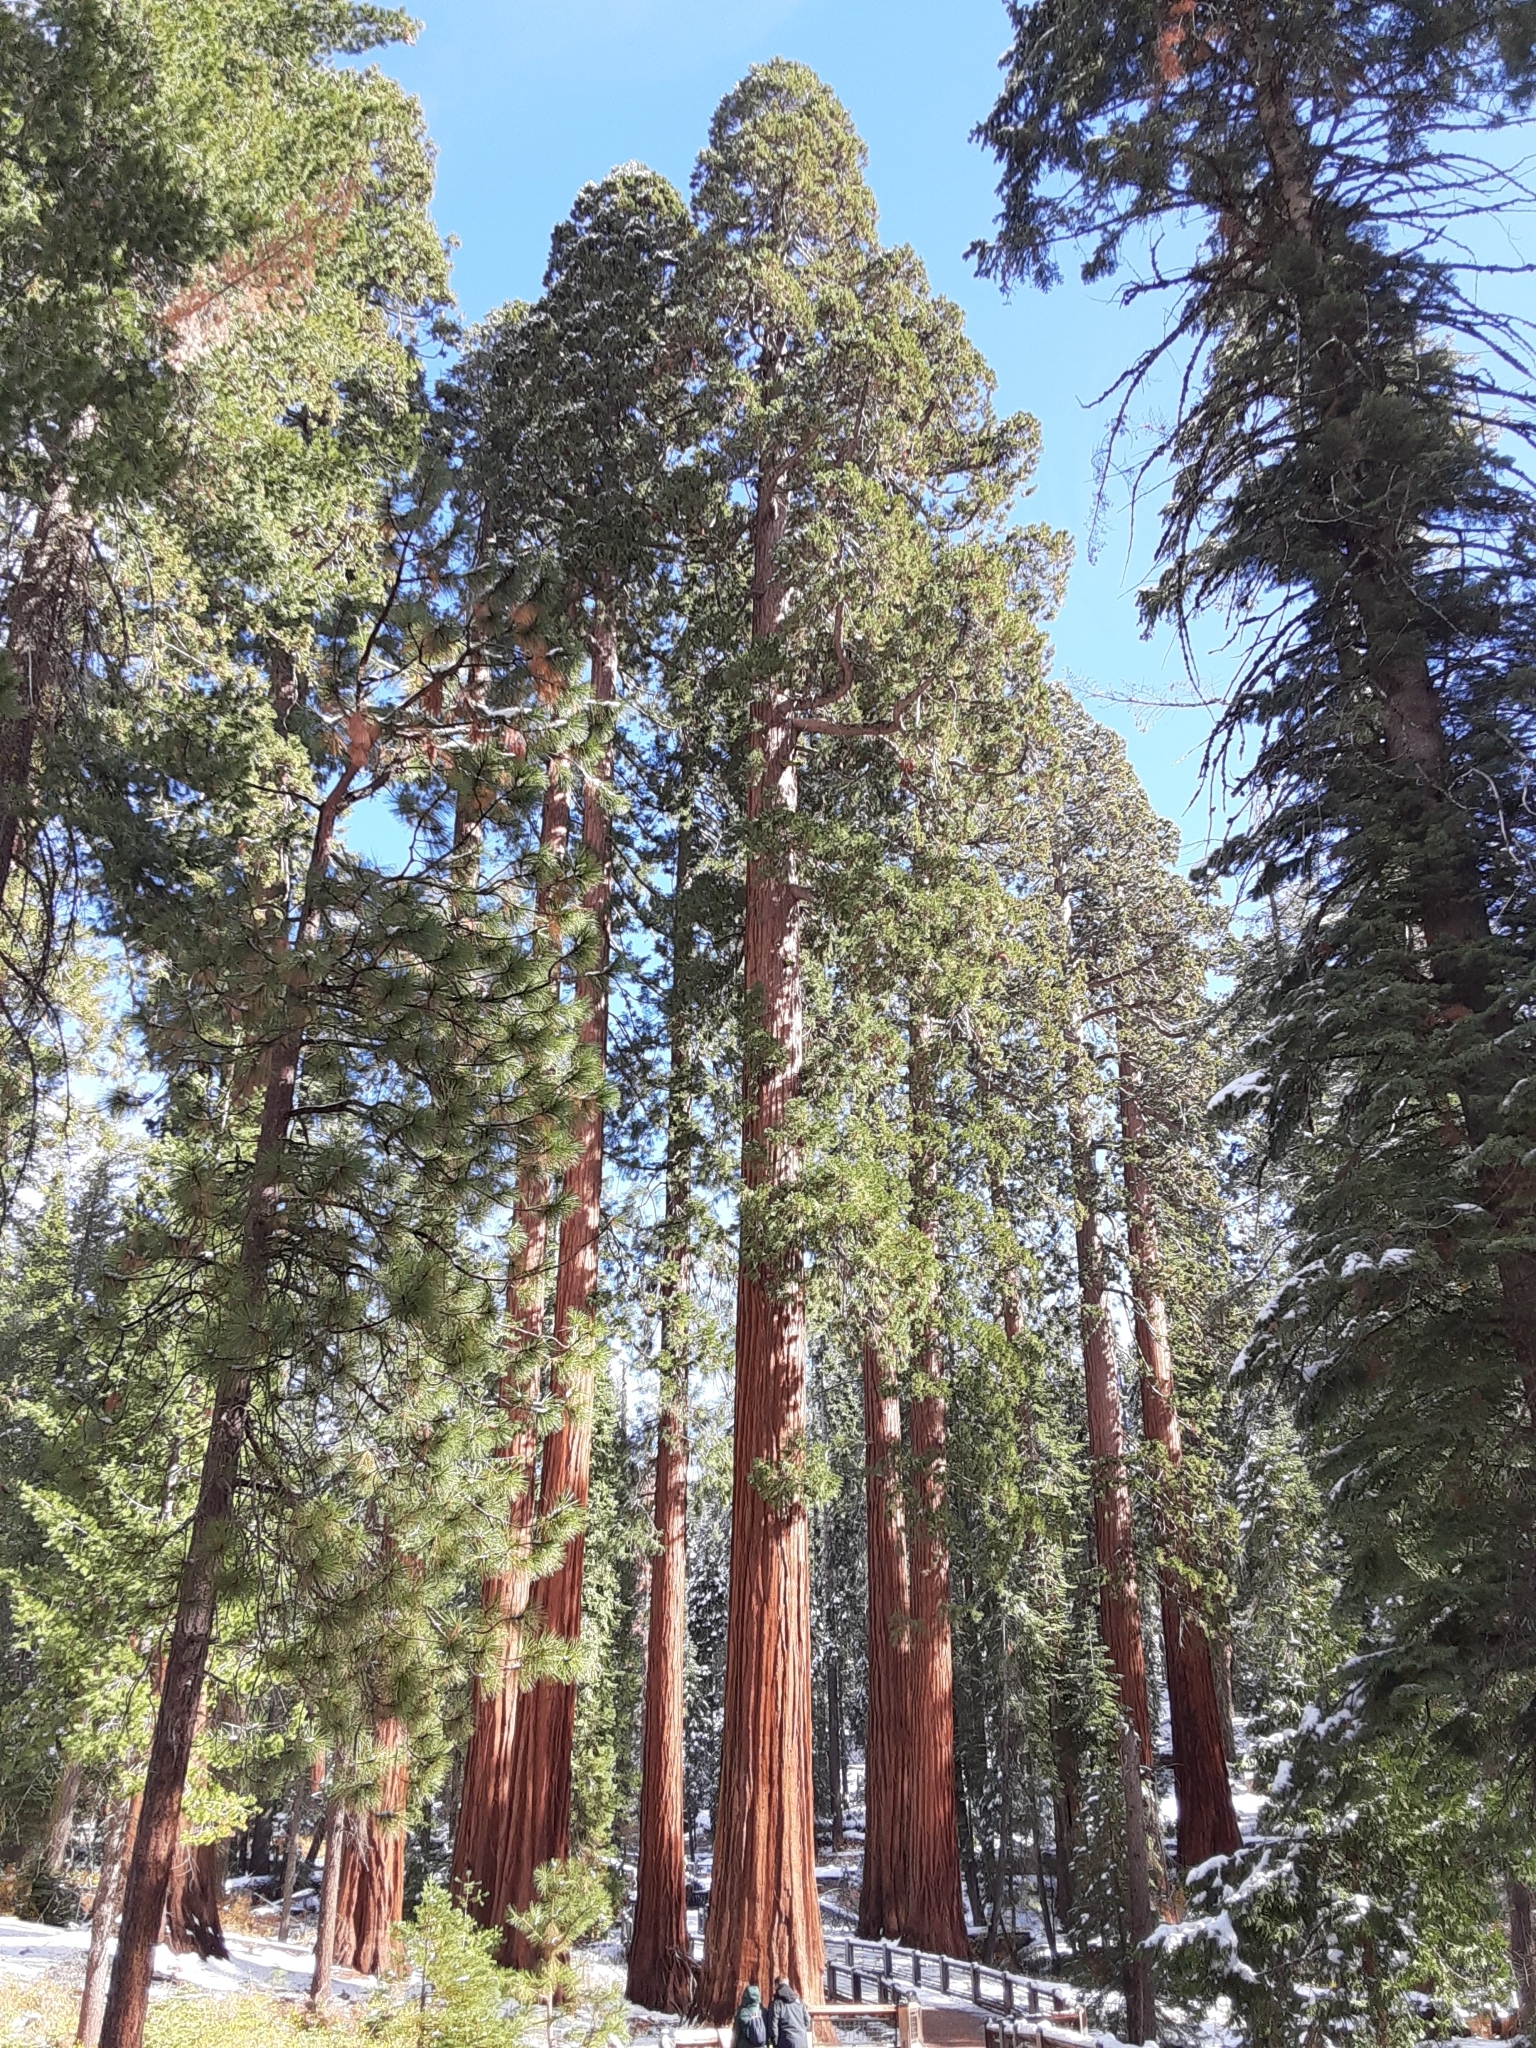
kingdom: Plantae
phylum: Tracheophyta
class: Pinopsida
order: Pinales
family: Cupressaceae
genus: Sequoiadendron
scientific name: Sequoiadendron giganteum
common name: Wellingtonia
